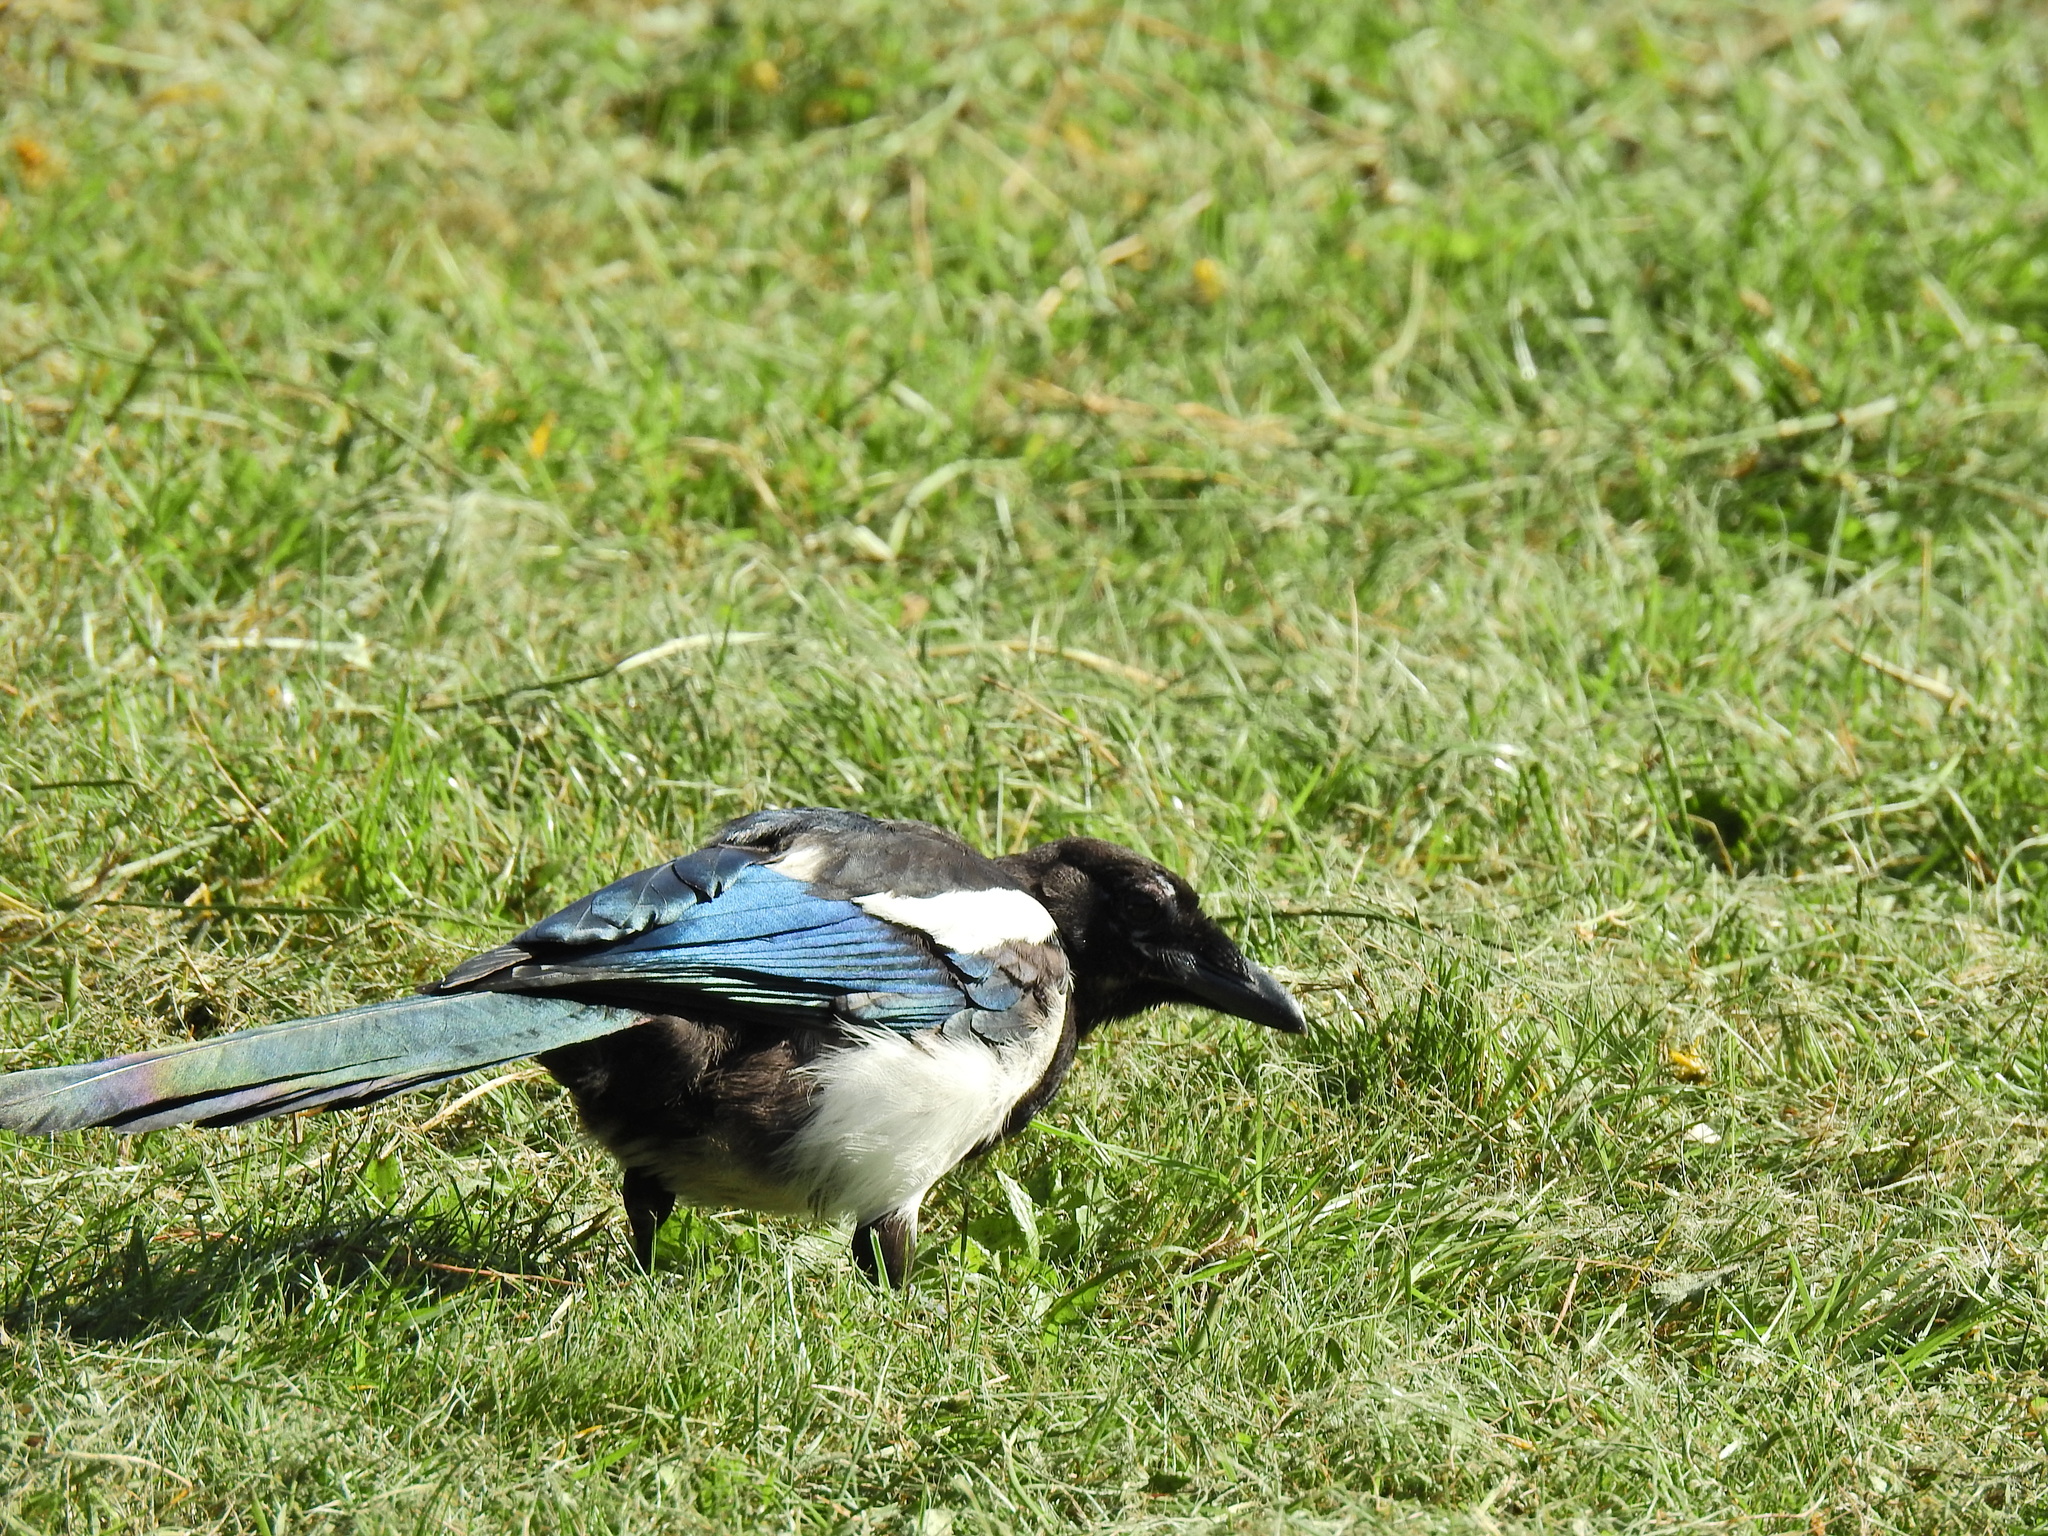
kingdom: Animalia
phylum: Chordata
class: Aves
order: Passeriformes
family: Corvidae
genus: Pica
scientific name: Pica pica
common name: Eurasian magpie
